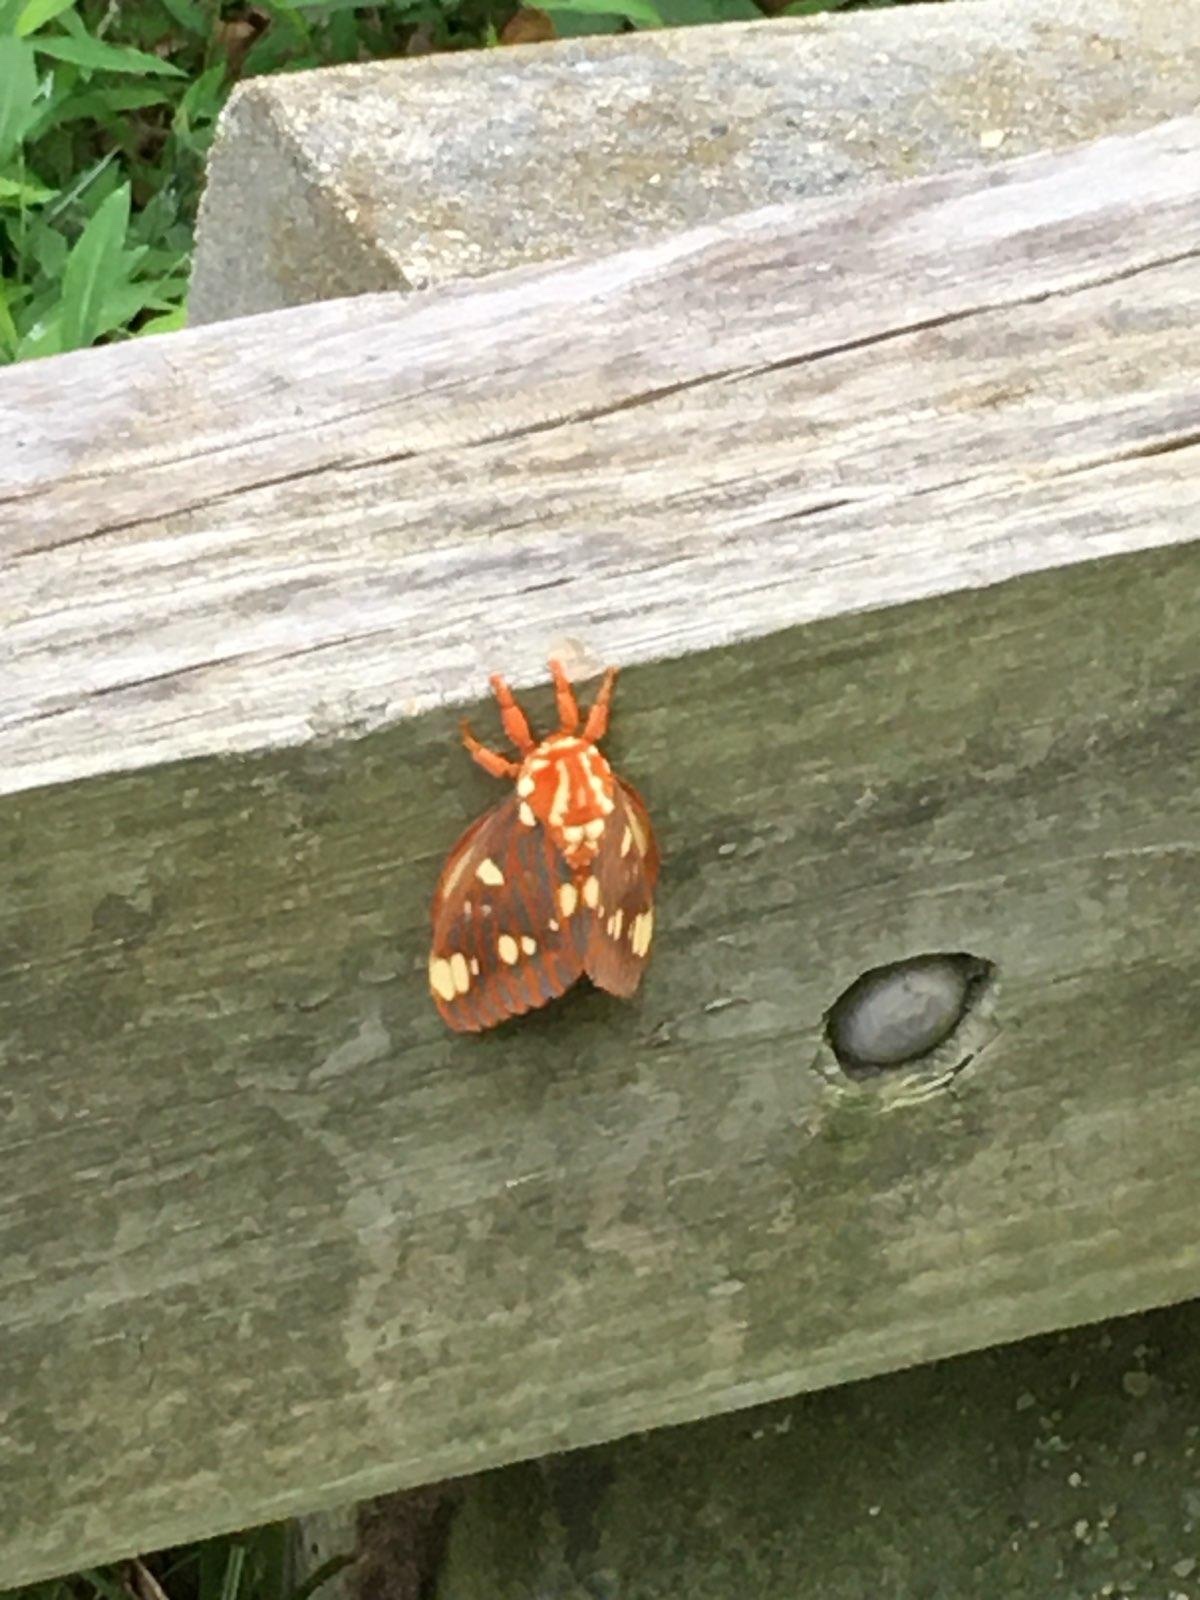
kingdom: Animalia
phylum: Arthropoda
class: Insecta
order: Lepidoptera
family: Saturniidae
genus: Citheronia
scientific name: Citheronia regalis
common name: Hickory horned devil
